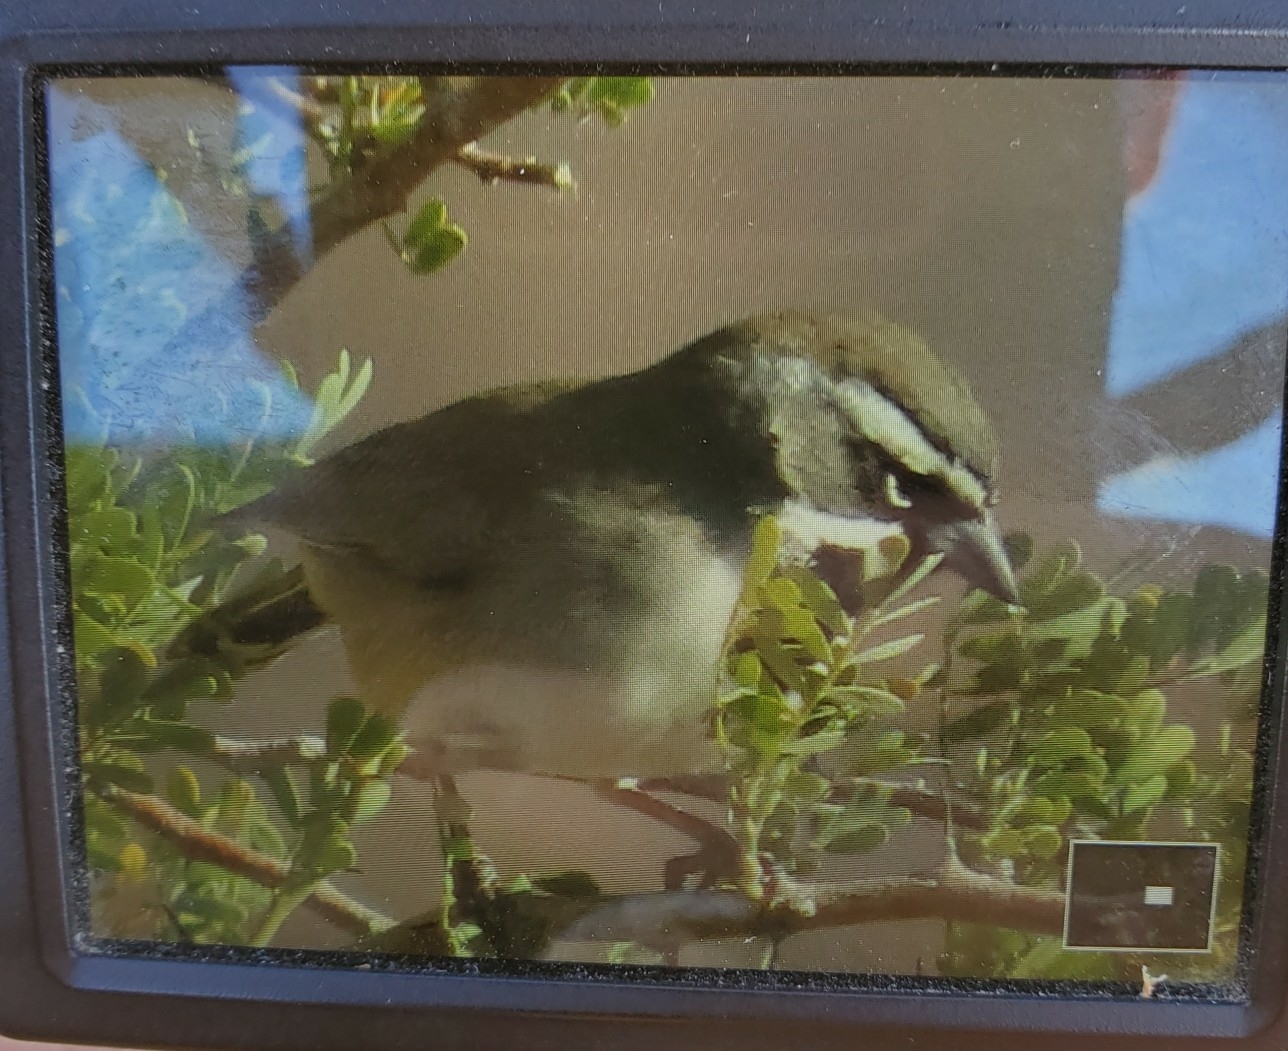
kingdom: Animalia
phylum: Chordata
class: Aves
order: Passeriformes
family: Passerellidae
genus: Amphispiza
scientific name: Amphispiza bilineata
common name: Black-throated sparrow
